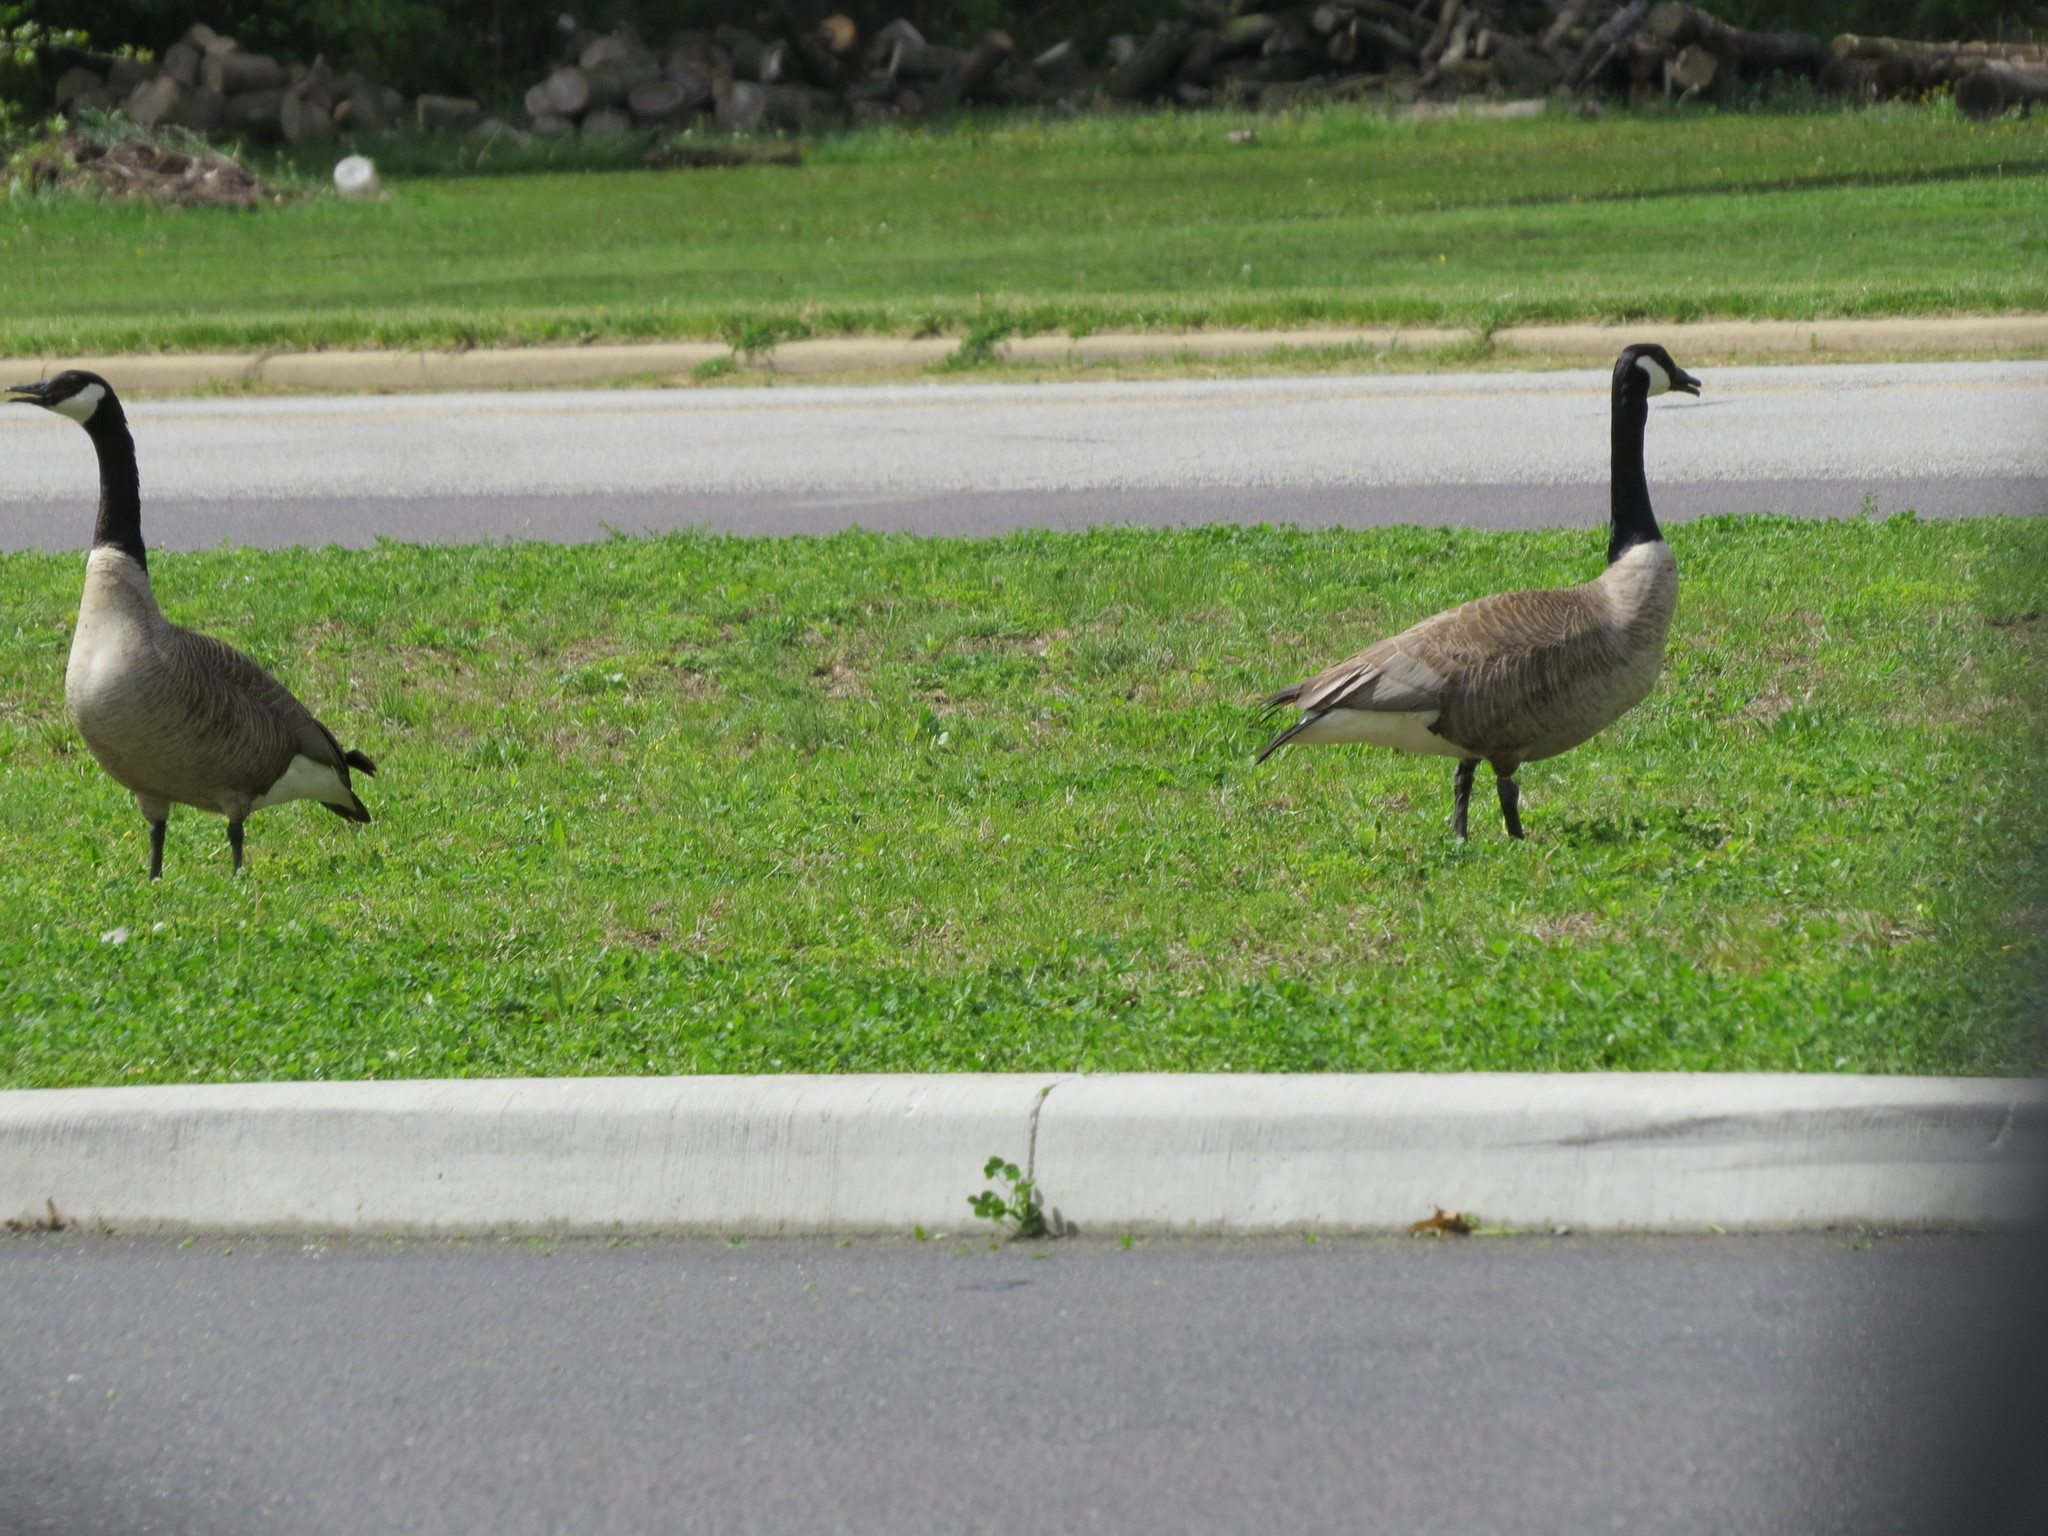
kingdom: Animalia
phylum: Chordata
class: Aves
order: Anseriformes
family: Anatidae
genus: Branta
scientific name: Branta canadensis
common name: Canada goose
